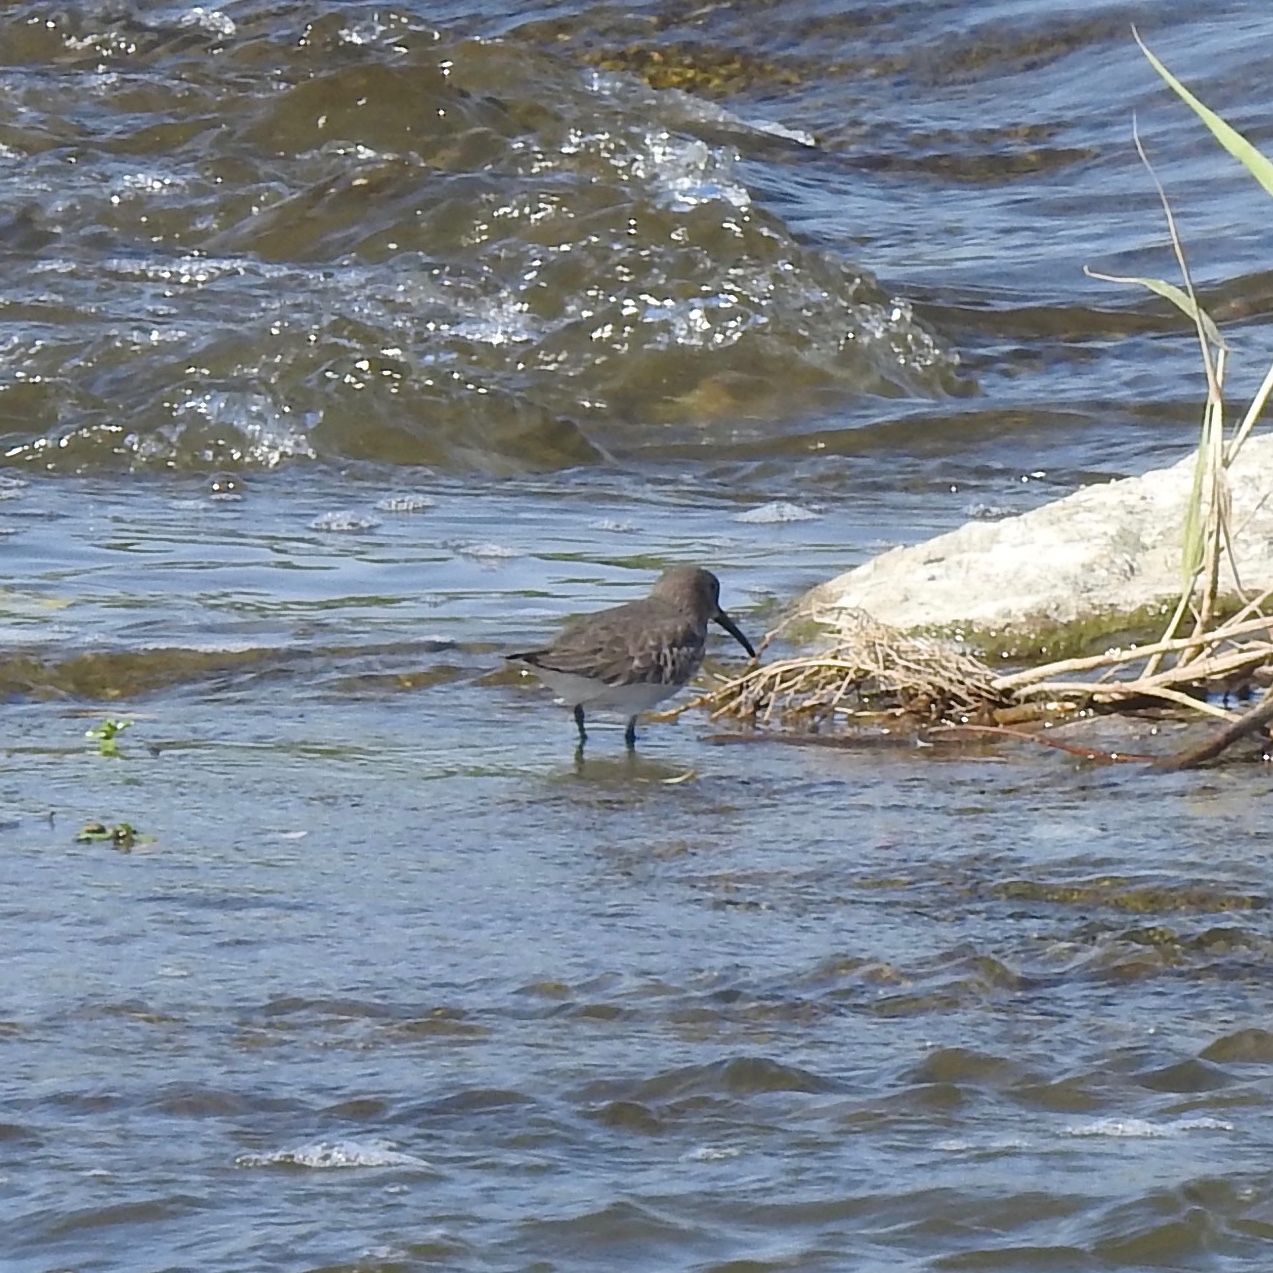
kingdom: Animalia
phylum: Chordata
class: Aves
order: Charadriiformes
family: Scolopacidae
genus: Calidris
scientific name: Calidris alpina
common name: Dunlin
